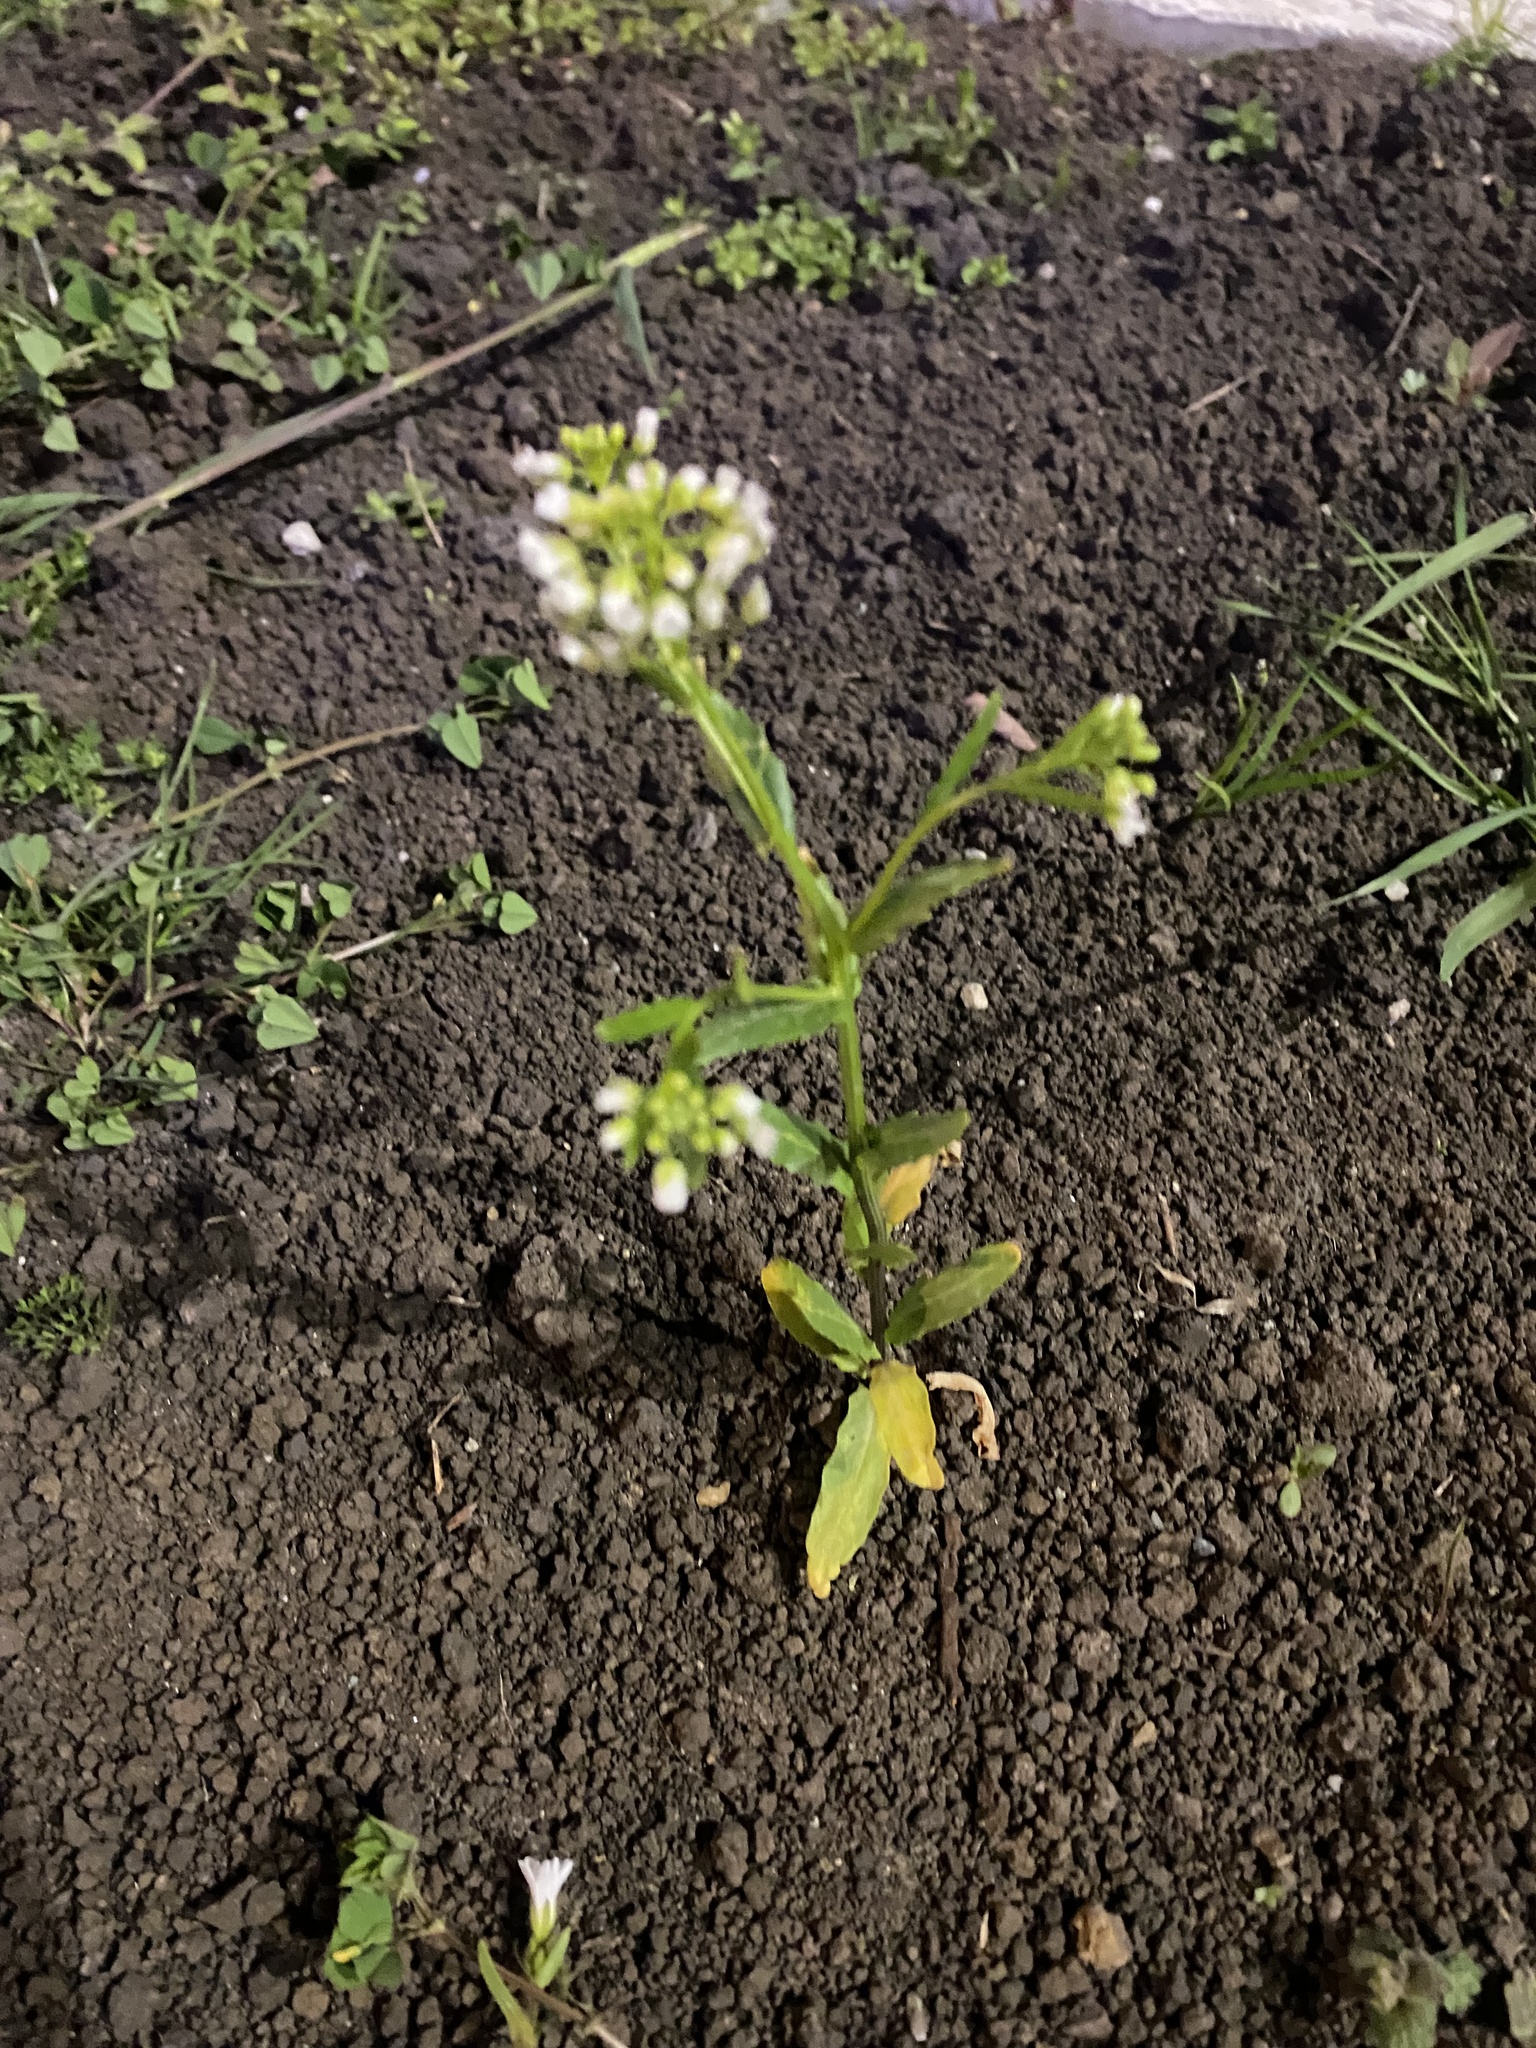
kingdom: Plantae
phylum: Tracheophyta
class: Magnoliopsida
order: Brassicales
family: Brassicaceae
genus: Thlaspi
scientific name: Thlaspi arvense
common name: Field pennycress
